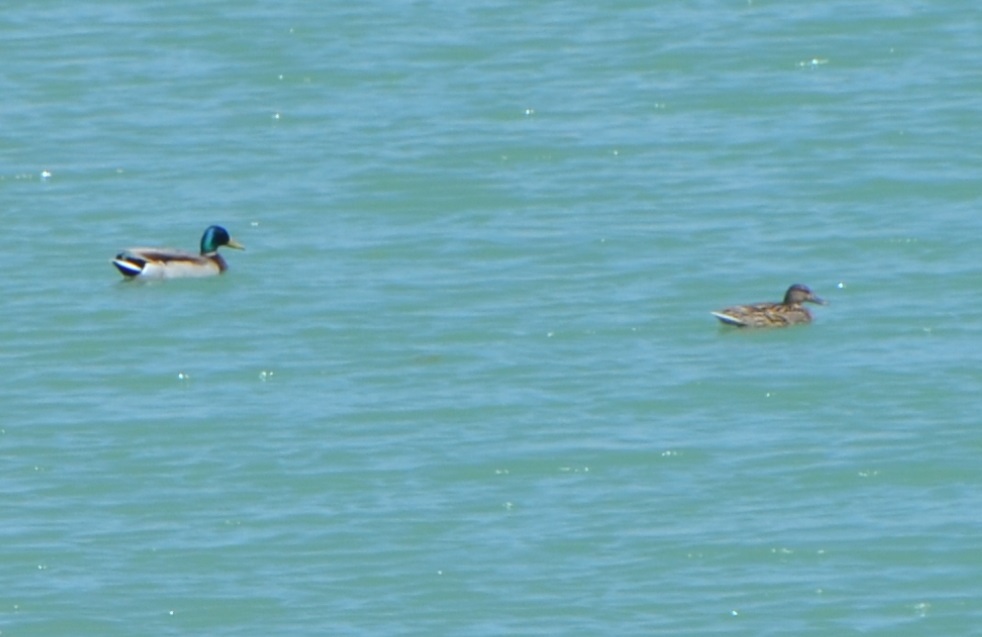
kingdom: Animalia
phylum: Chordata
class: Aves
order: Anseriformes
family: Anatidae
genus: Anas
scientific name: Anas platyrhynchos
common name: Mallard
